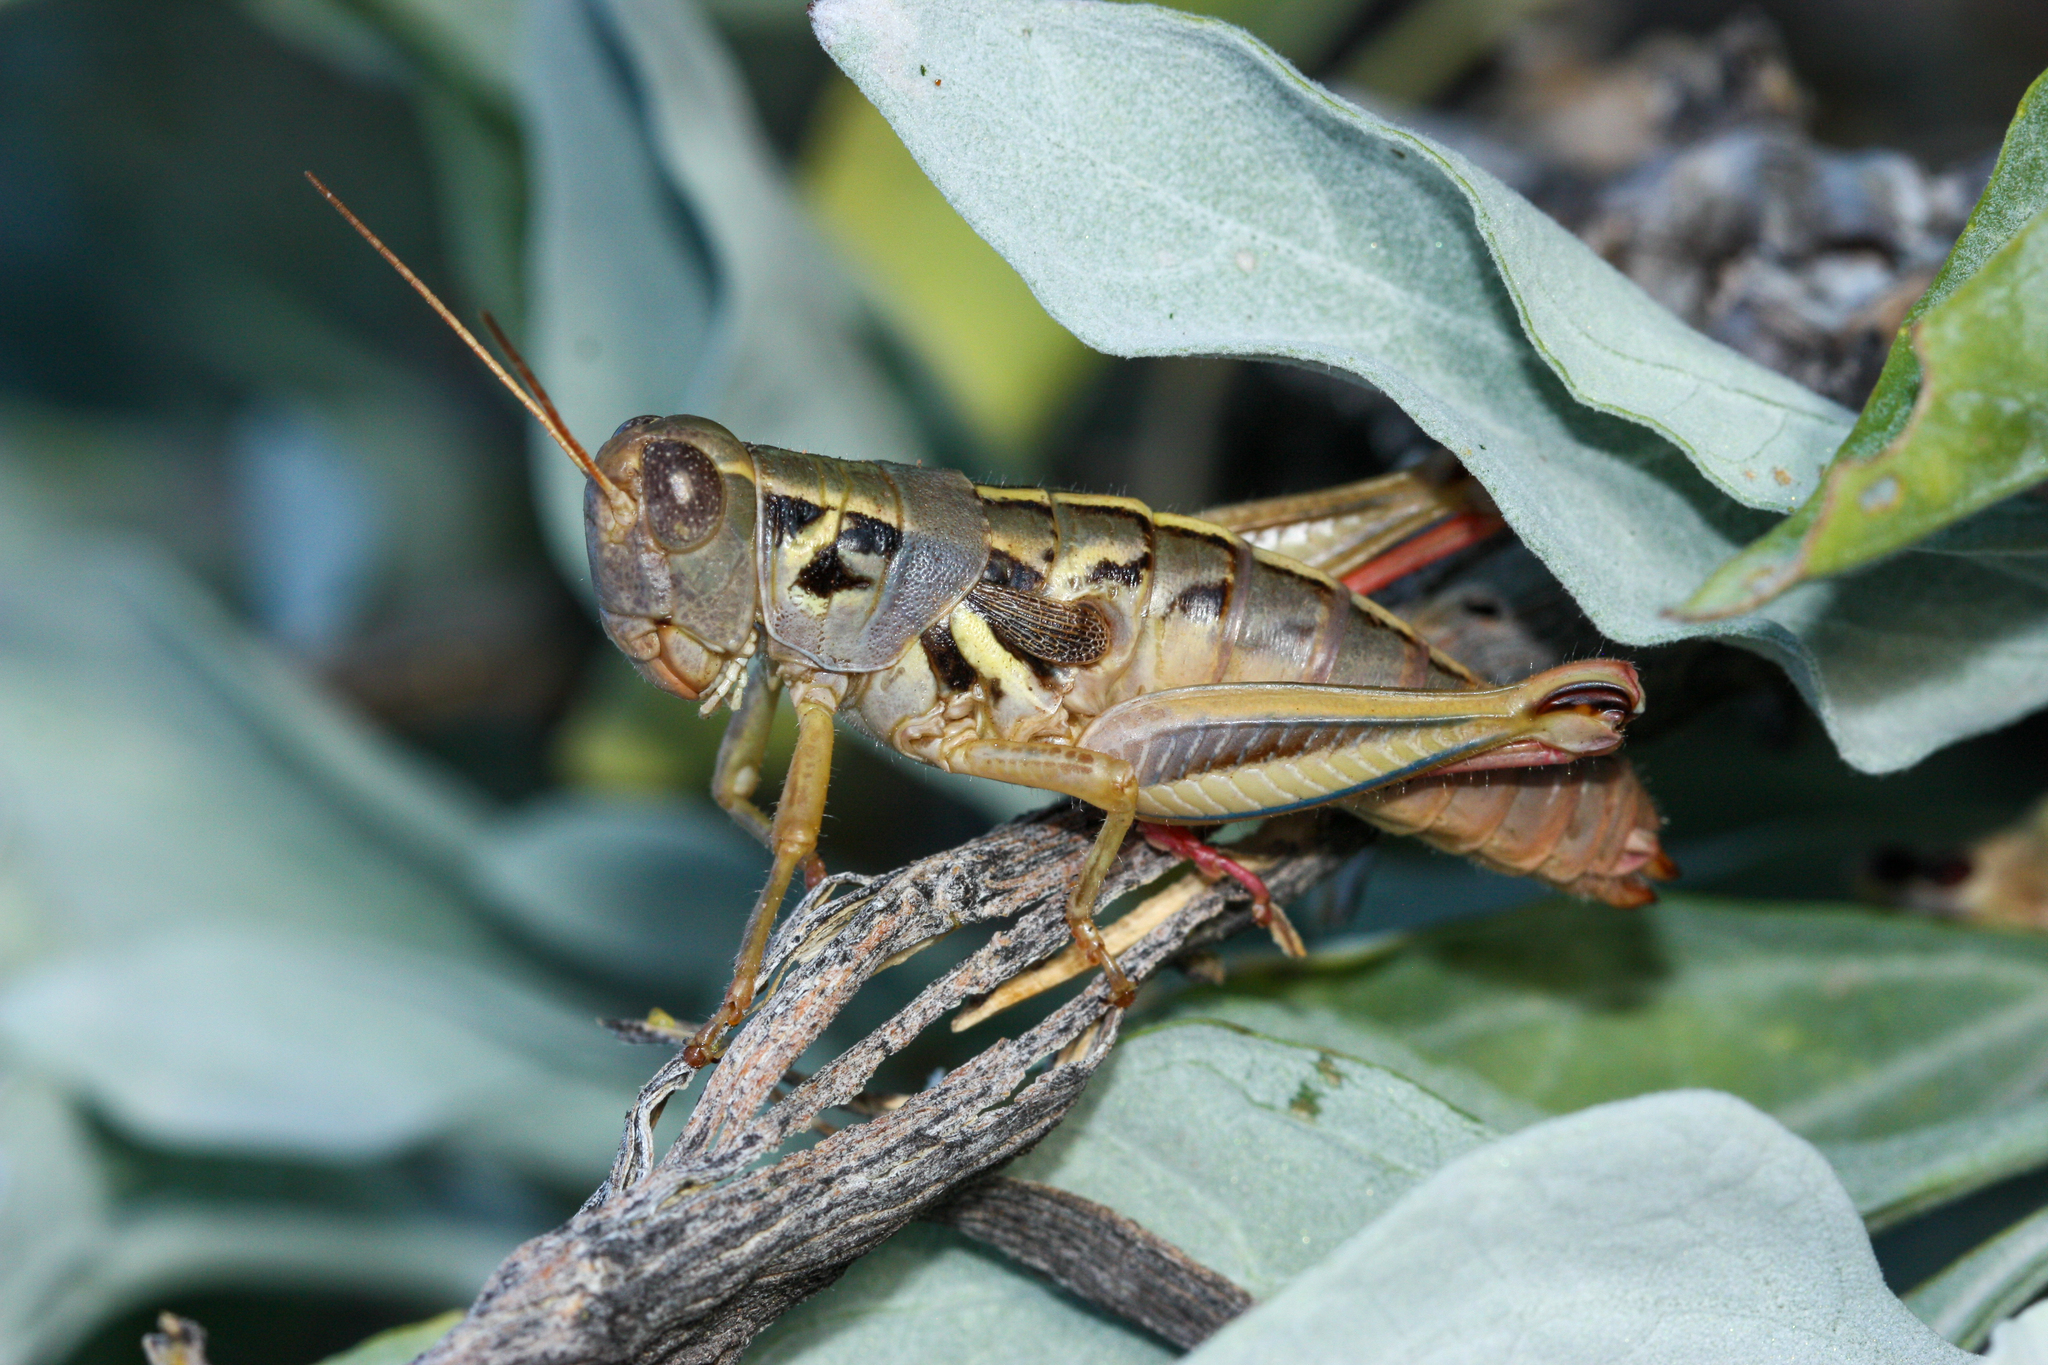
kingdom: Animalia
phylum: Arthropoda
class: Insecta
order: Orthoptera
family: Acrididae
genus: Barytettix
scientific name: Barytettix humphreysii
